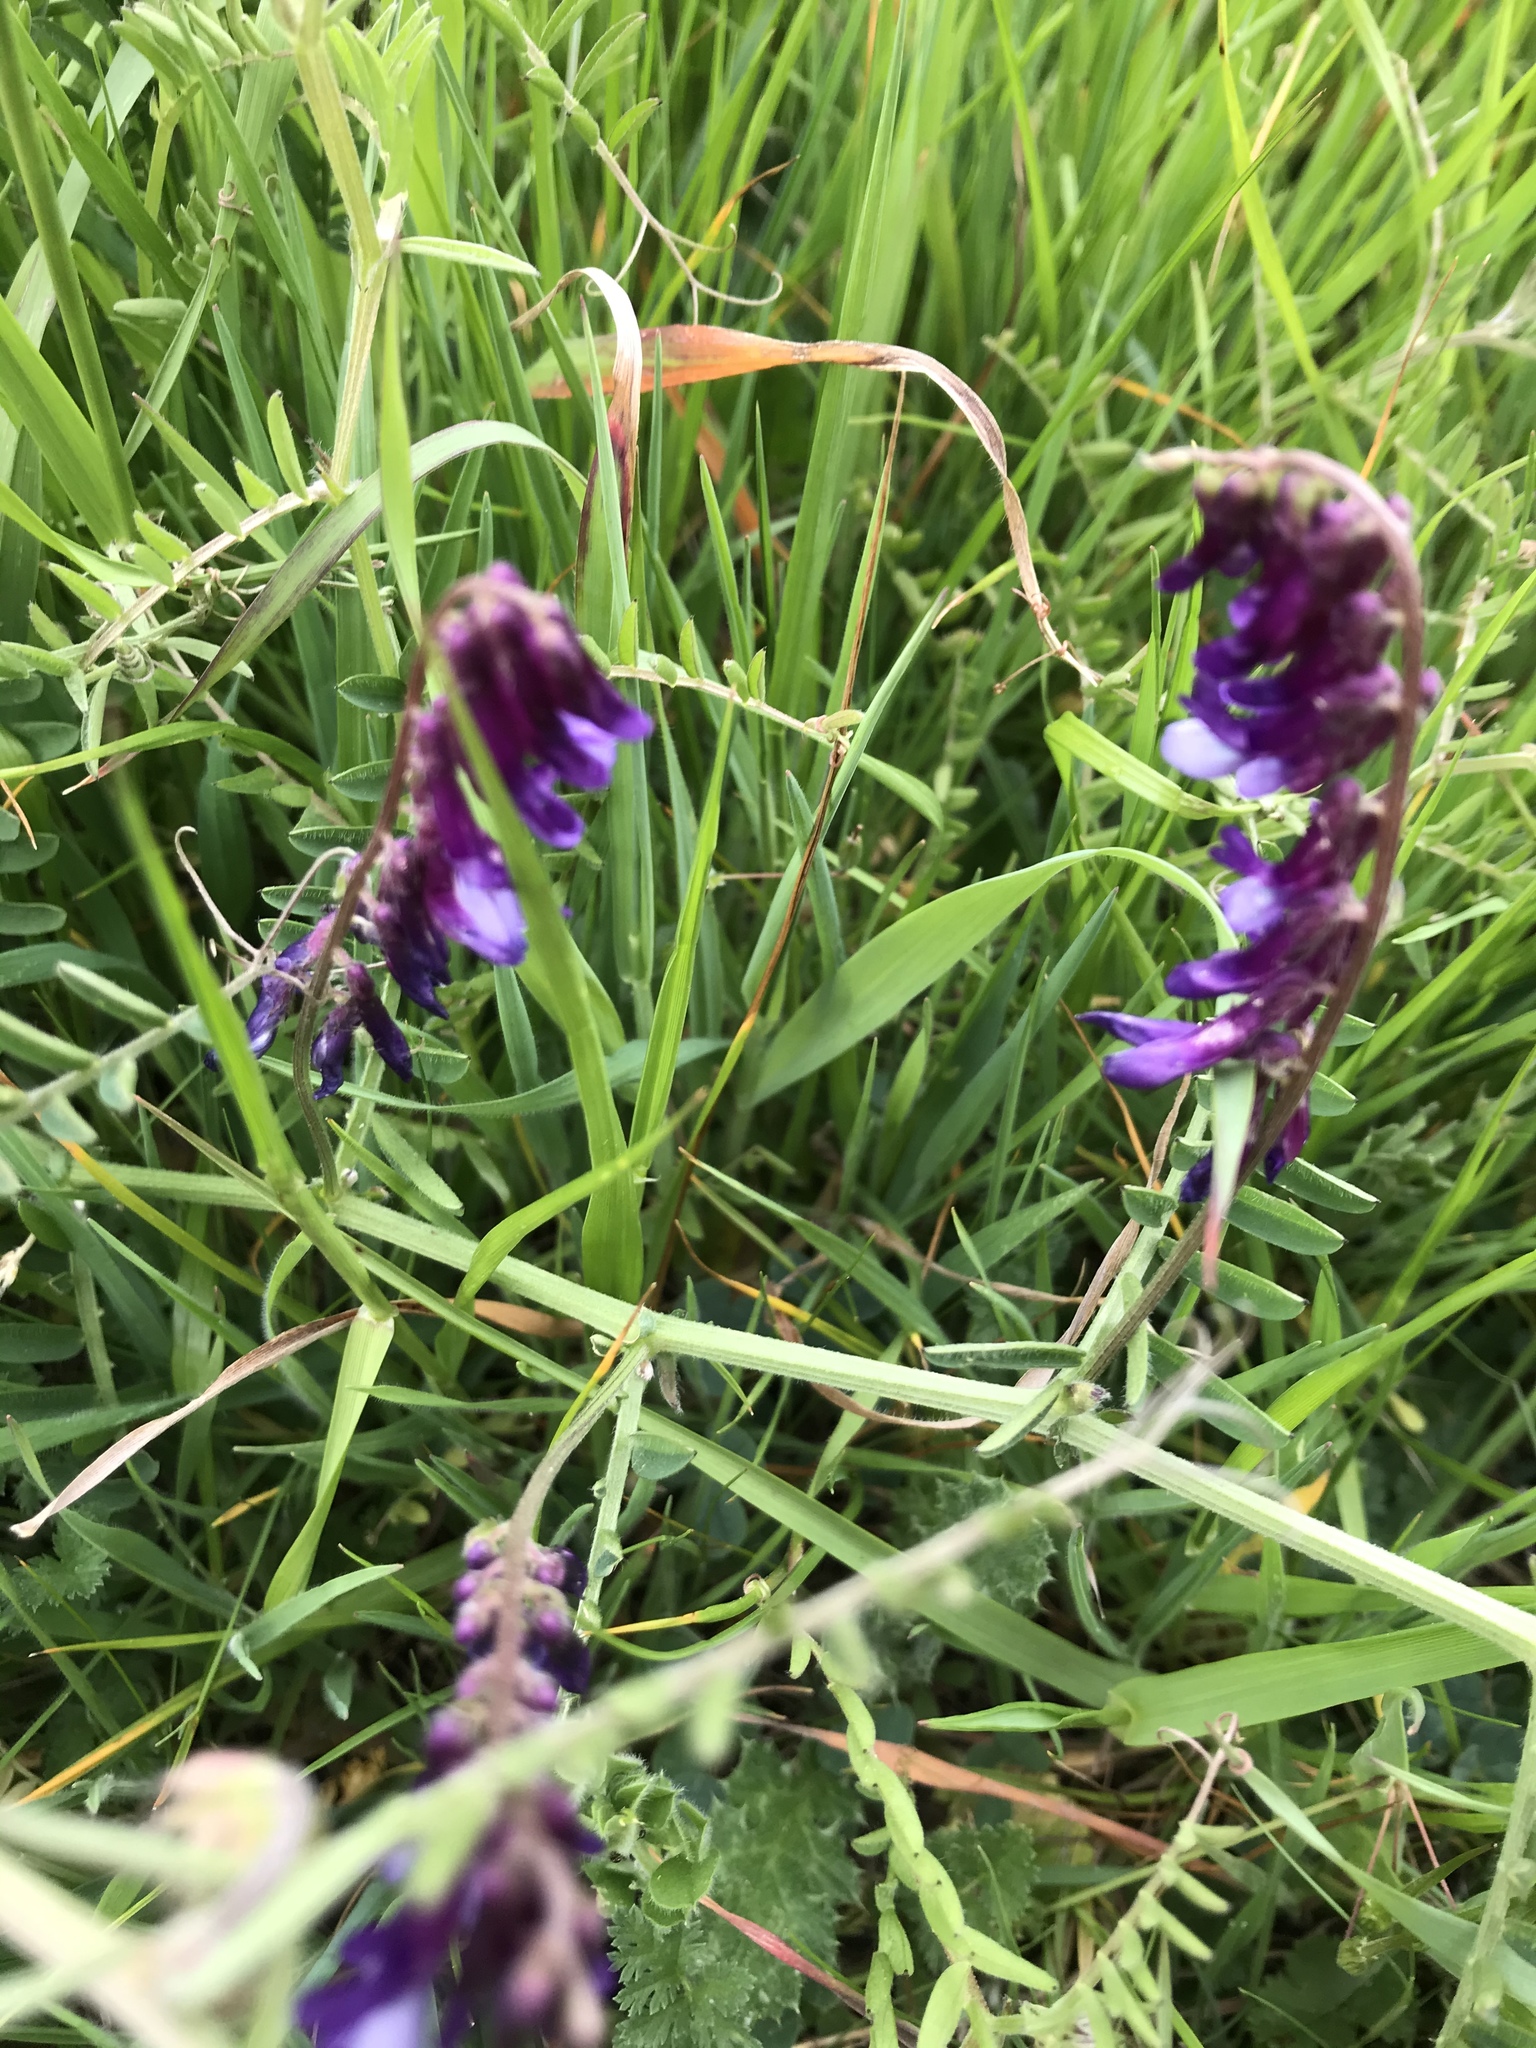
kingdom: Plantae
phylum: Tracheophyta
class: Magnoliopsida
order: Fabales
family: Fabaceae
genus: Vicia
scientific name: Vicia villosa
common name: Fodder vetch
